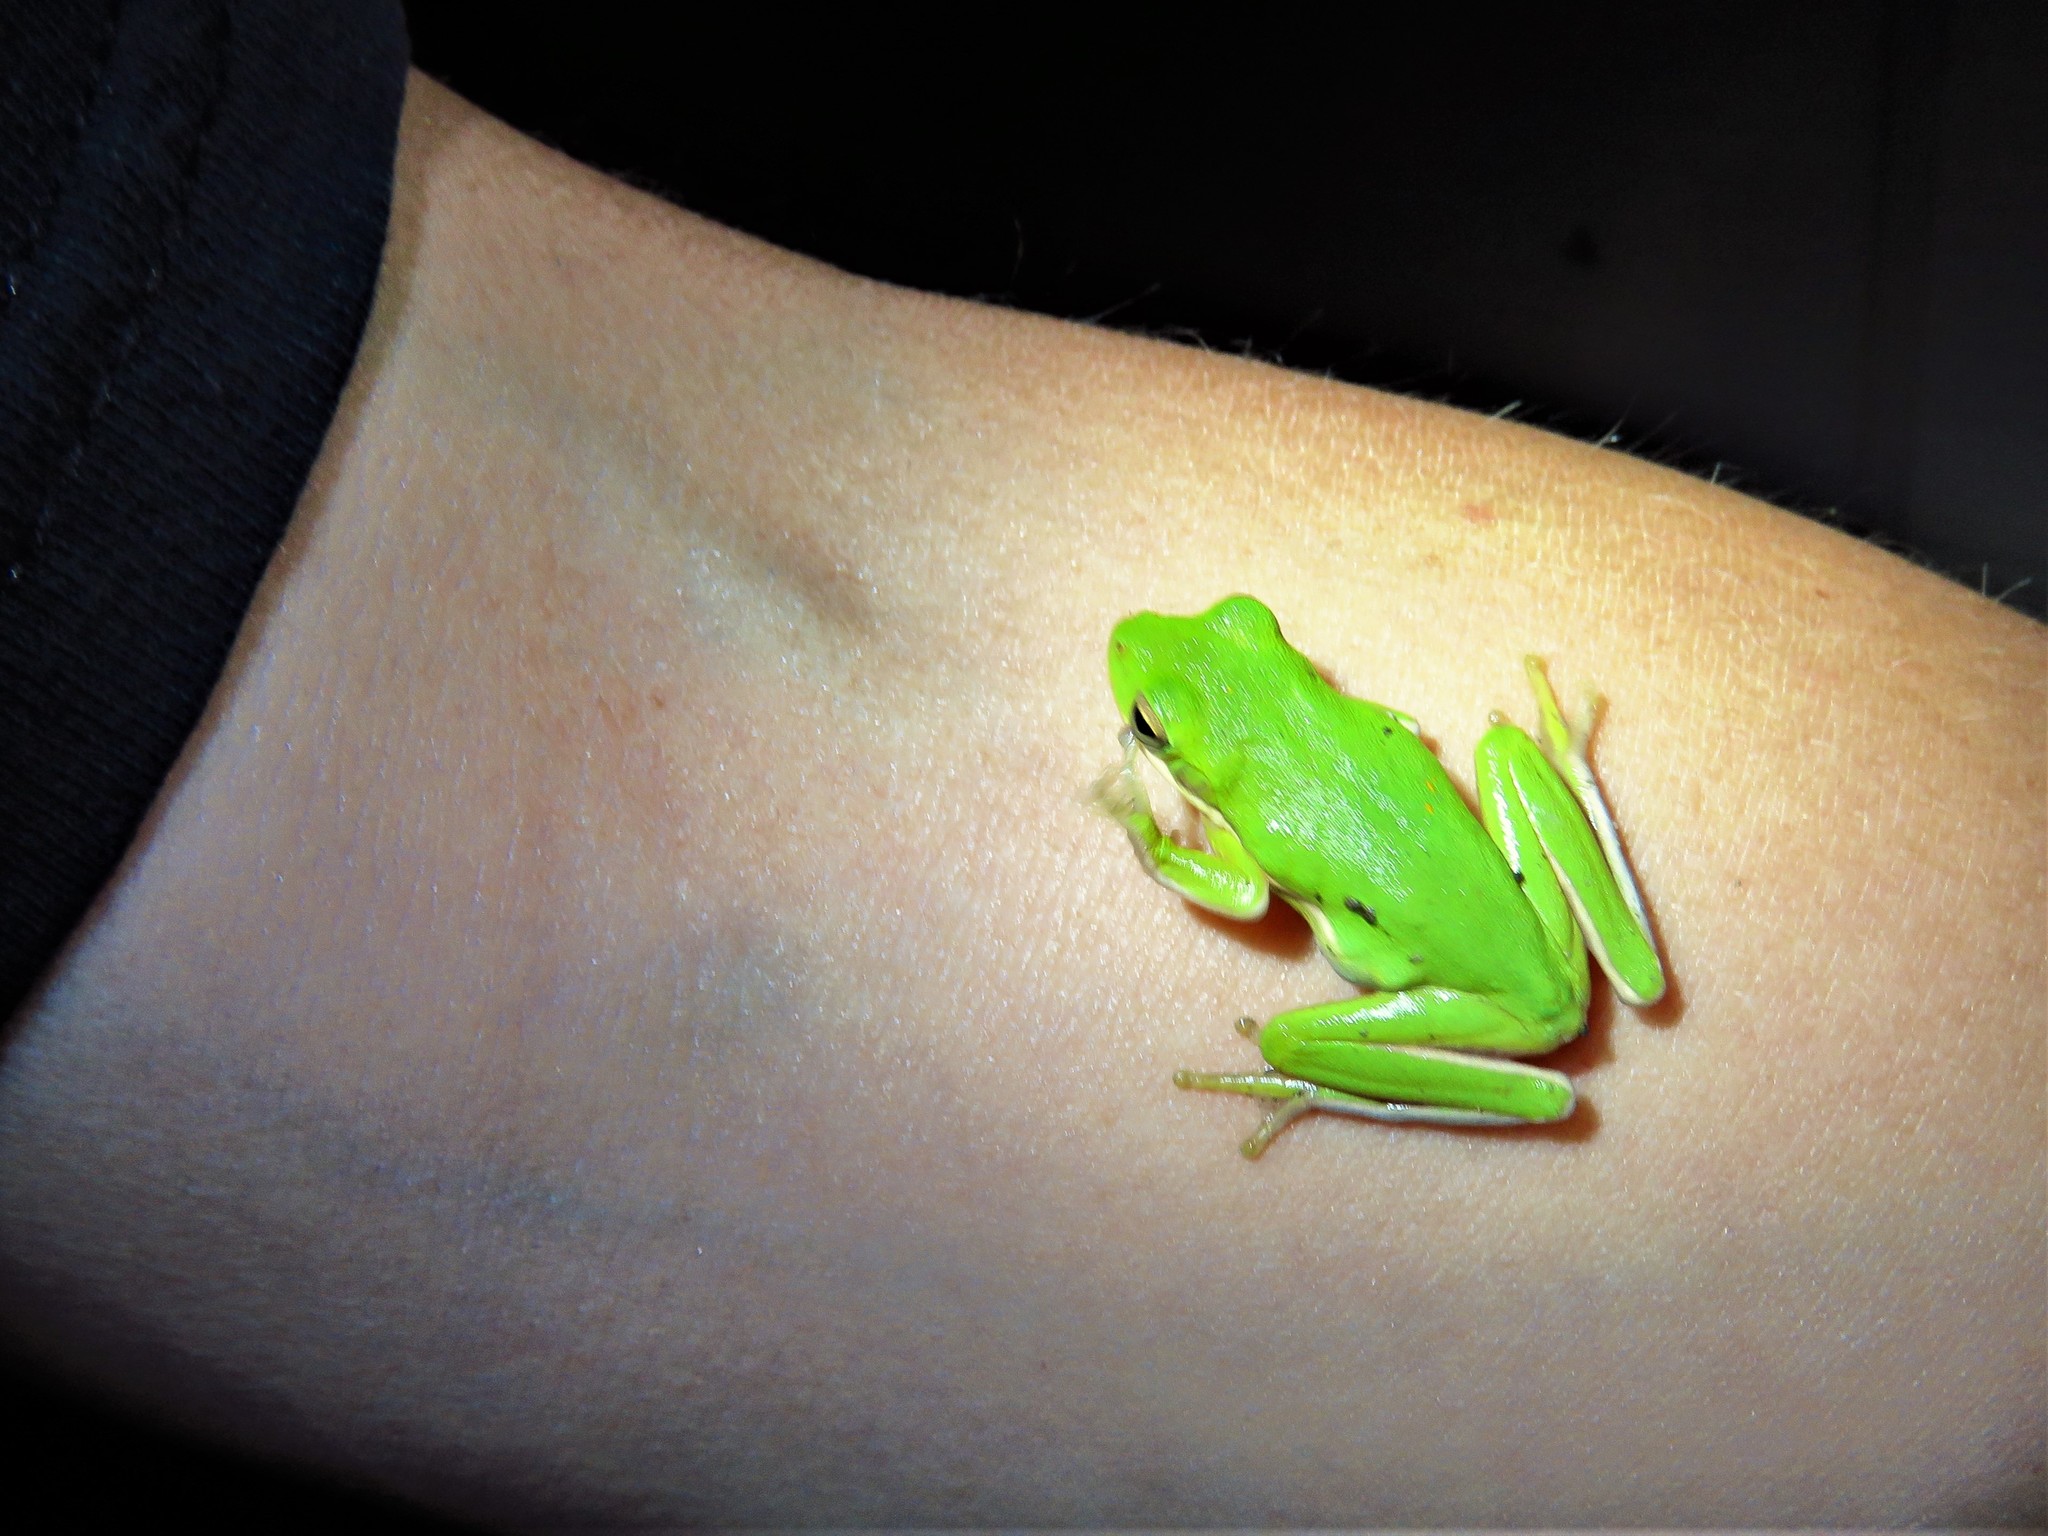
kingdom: Animalia
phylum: Chordata
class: Amphibia
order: Anura
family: Hylidae
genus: Dryophytes
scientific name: Dryophytes cinereus
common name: Green treefrog
